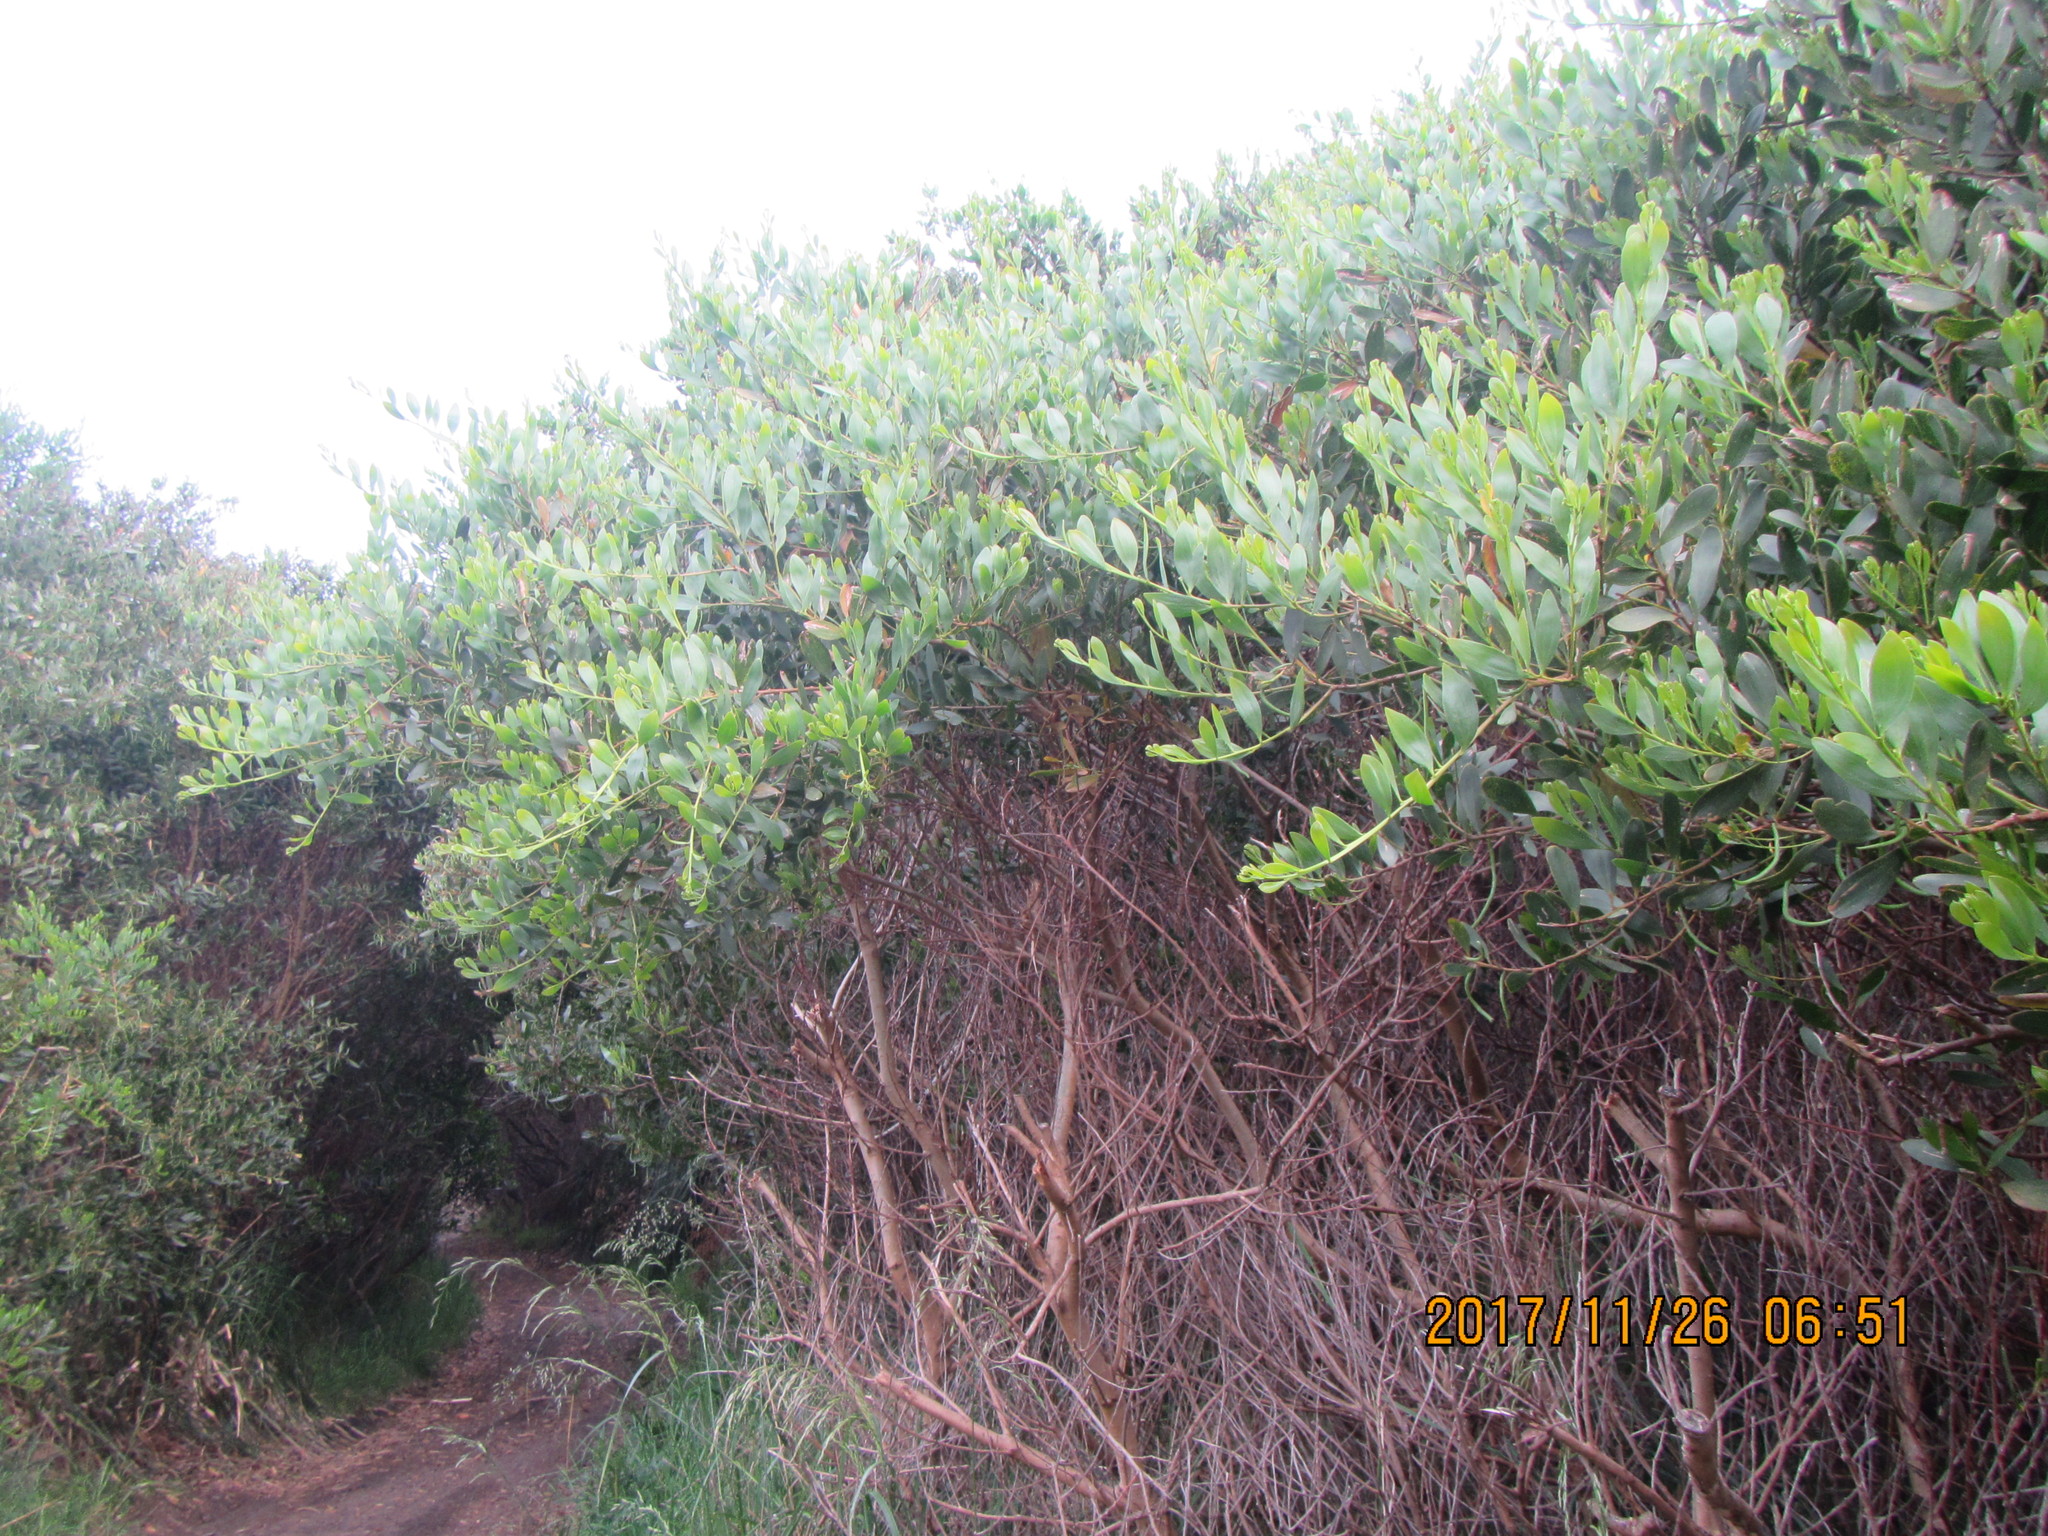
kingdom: Plantae
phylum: Tracheophyta
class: Magnoliopsida
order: Fabales
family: Fabaceae
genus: Acacia
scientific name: Acacia longifolia
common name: Sydney golden wattle
